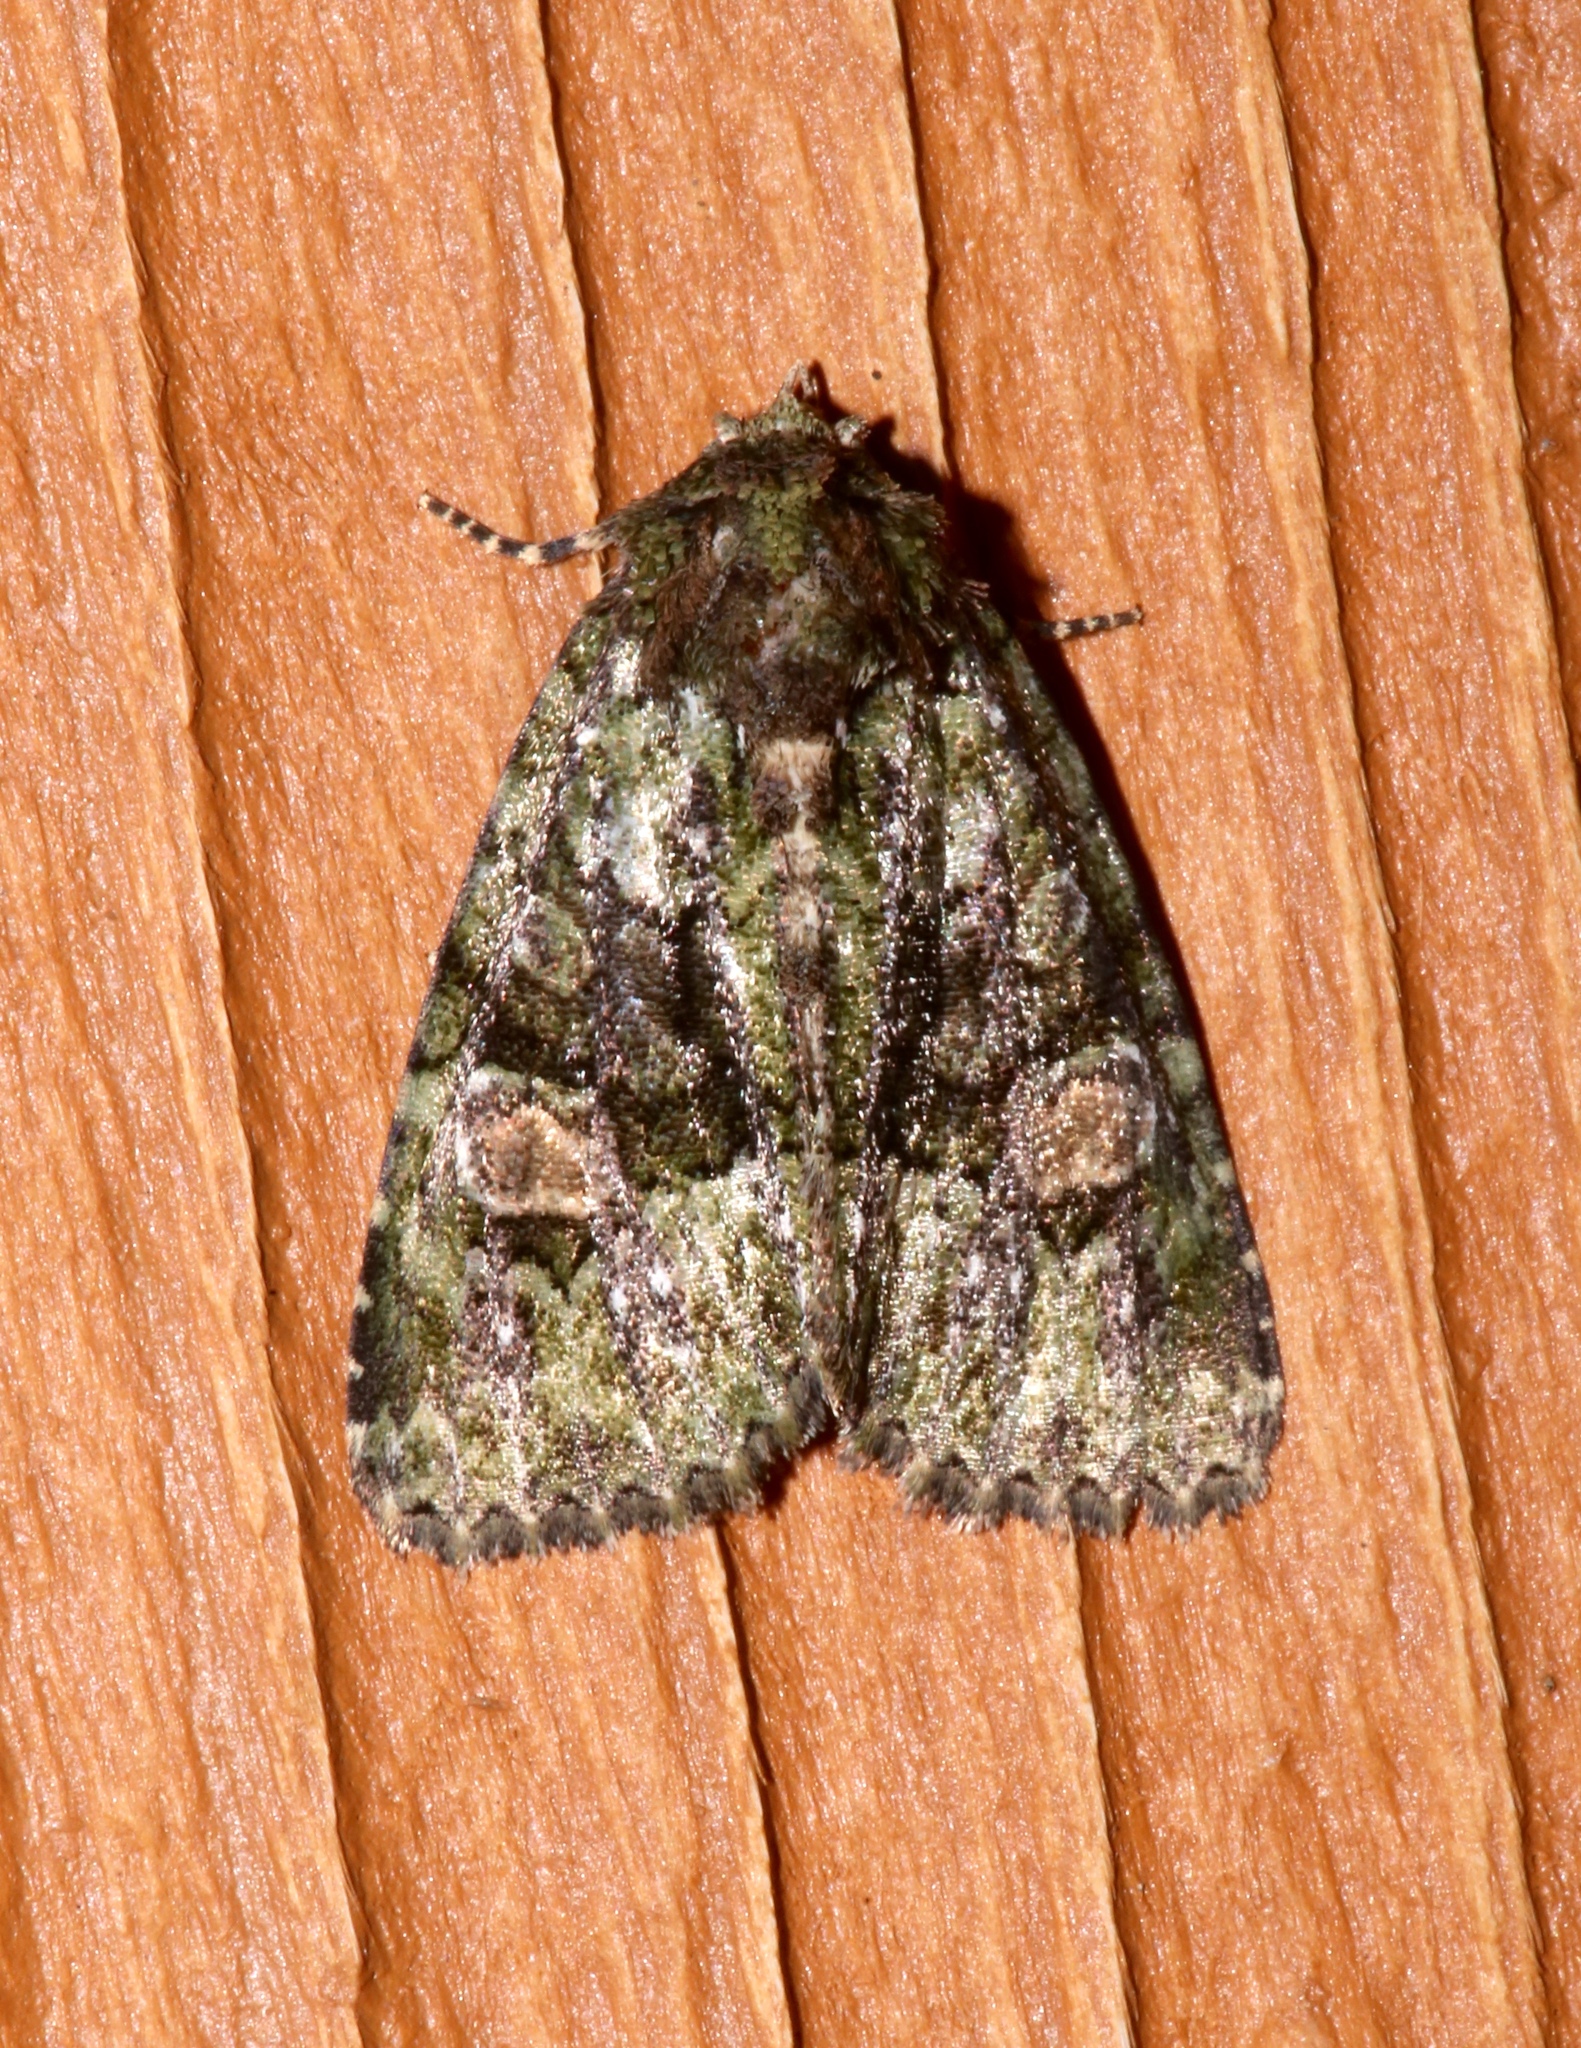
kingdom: Animalia
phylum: Arthropoda
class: Insecta
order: Lepidoptera
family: Noctuidae
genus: Phosphila
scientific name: Phosphila miselioides
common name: Spotted phosphila moth
